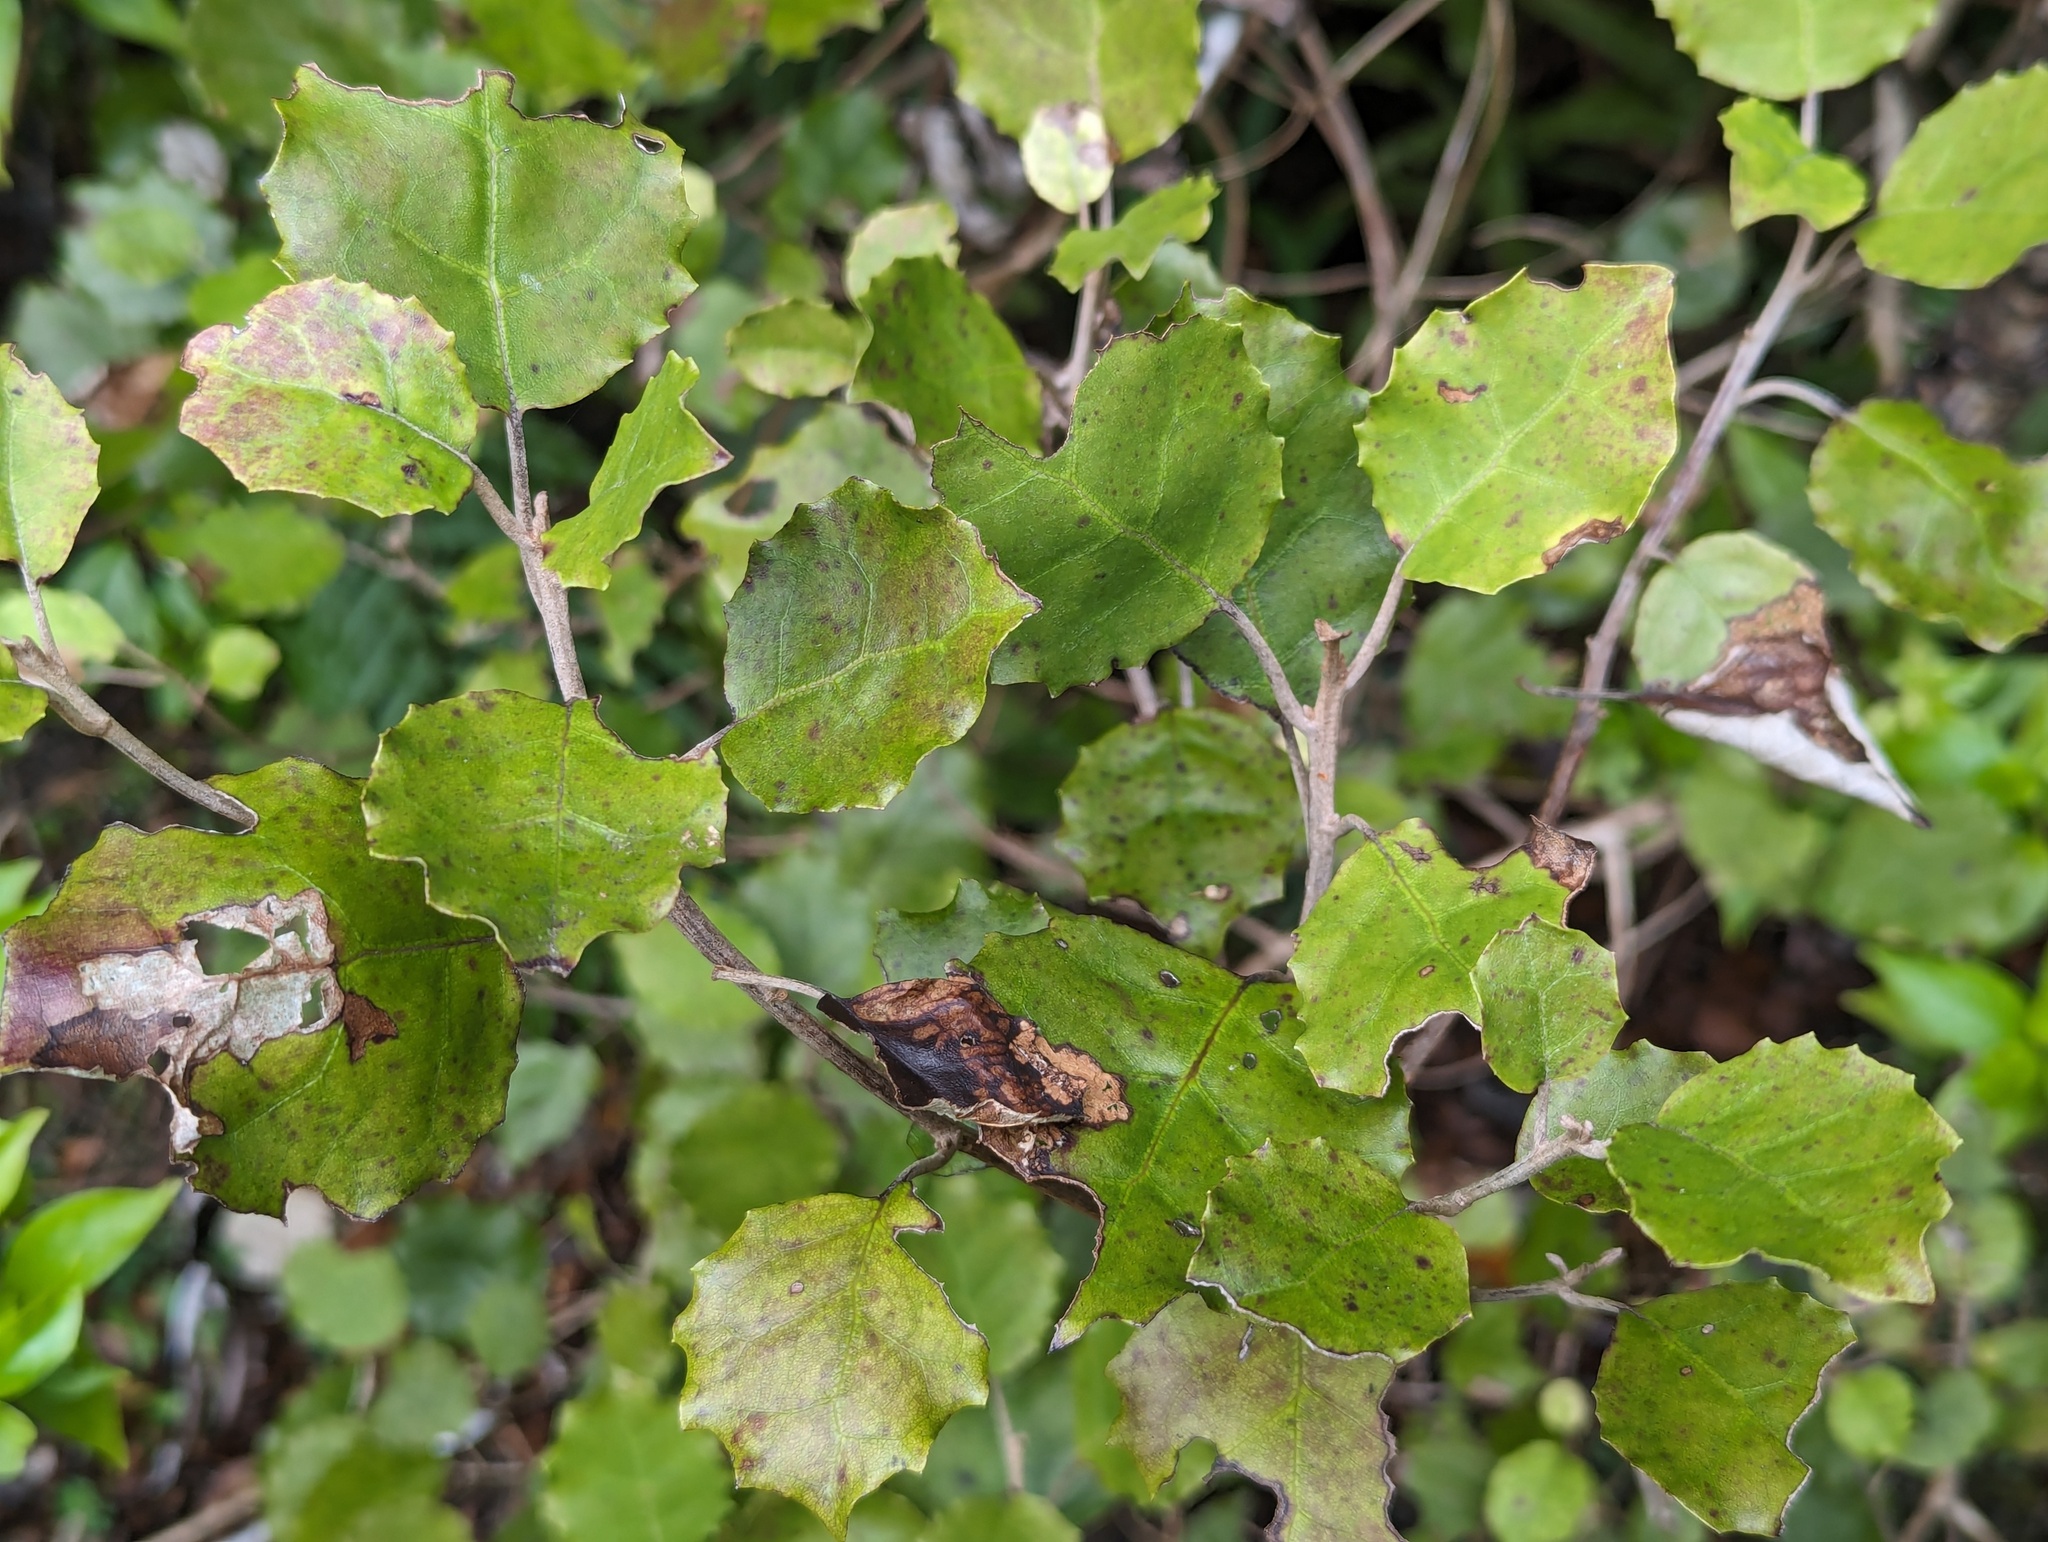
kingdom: Plantae
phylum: Tracheophyta
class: Magnoliopsida
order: Asterales
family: Asteraceae
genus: Brachyglottis
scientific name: Brachyglottis repanda
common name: Hedge ragwort
